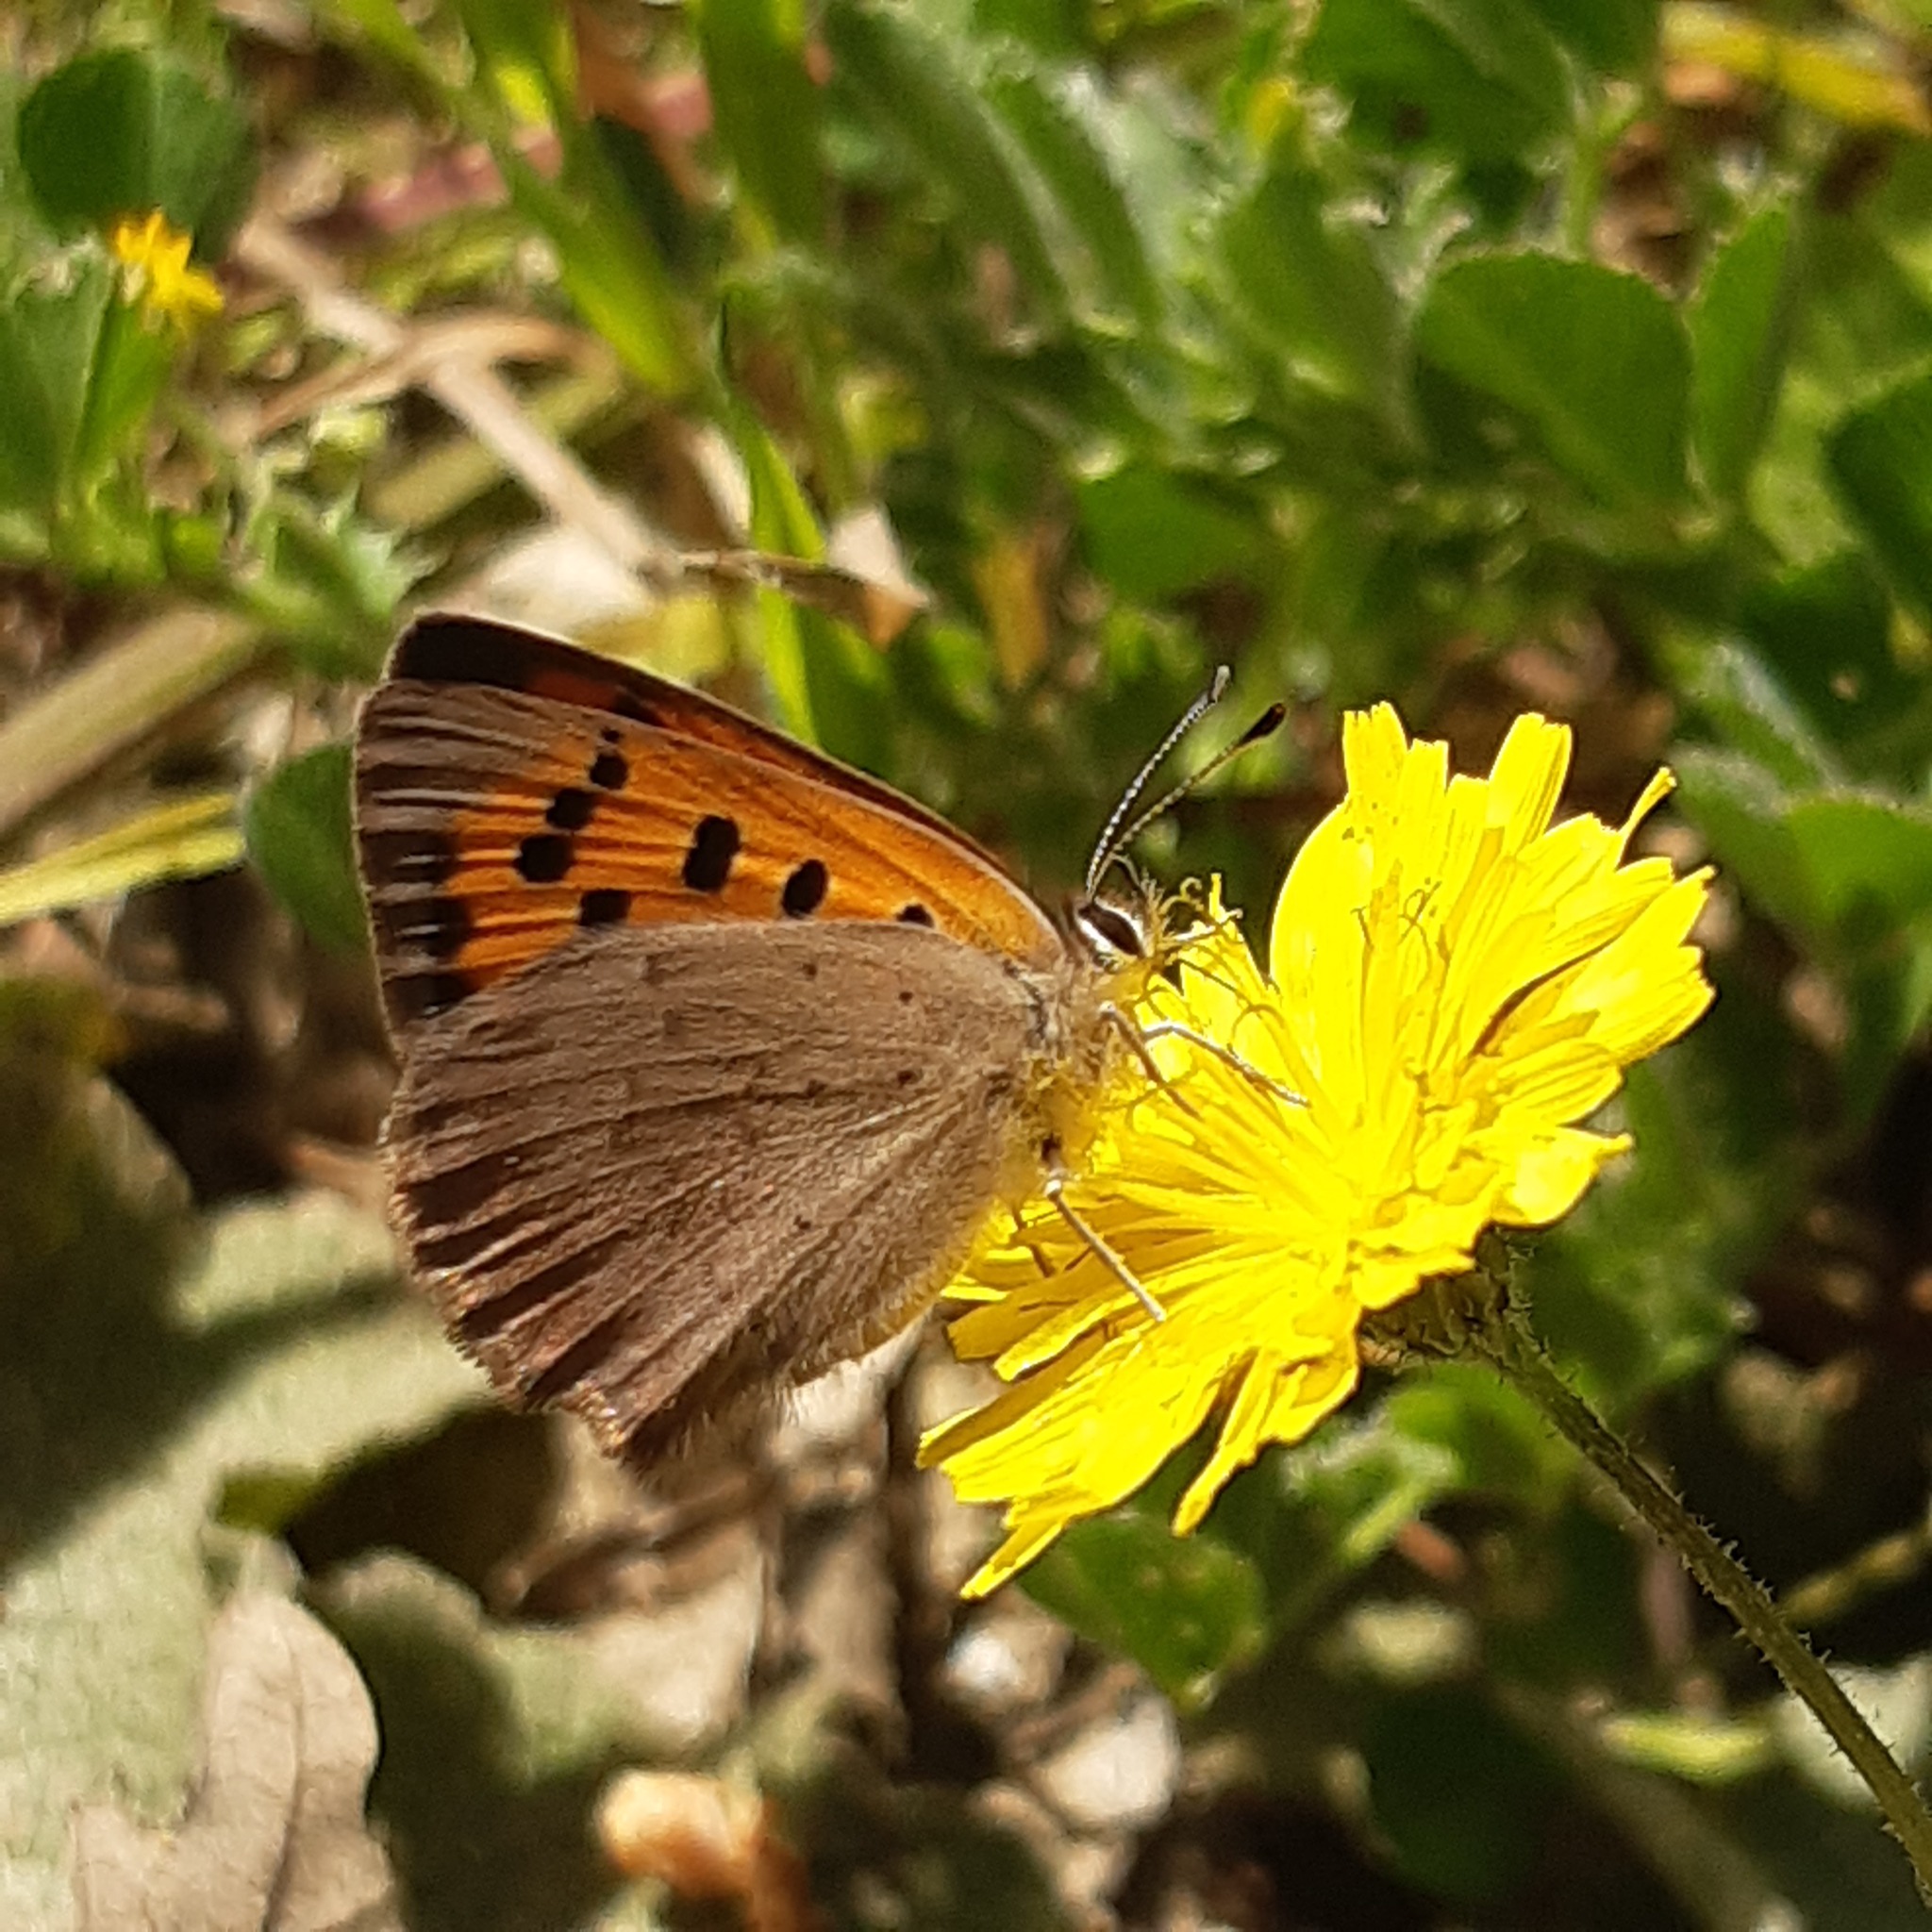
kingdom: Animalia
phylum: Arthropoda
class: Insecta
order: Lepidoptera
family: Lycaenidae
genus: Lycaena
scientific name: Lycaena phlaeas
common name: Small copper
